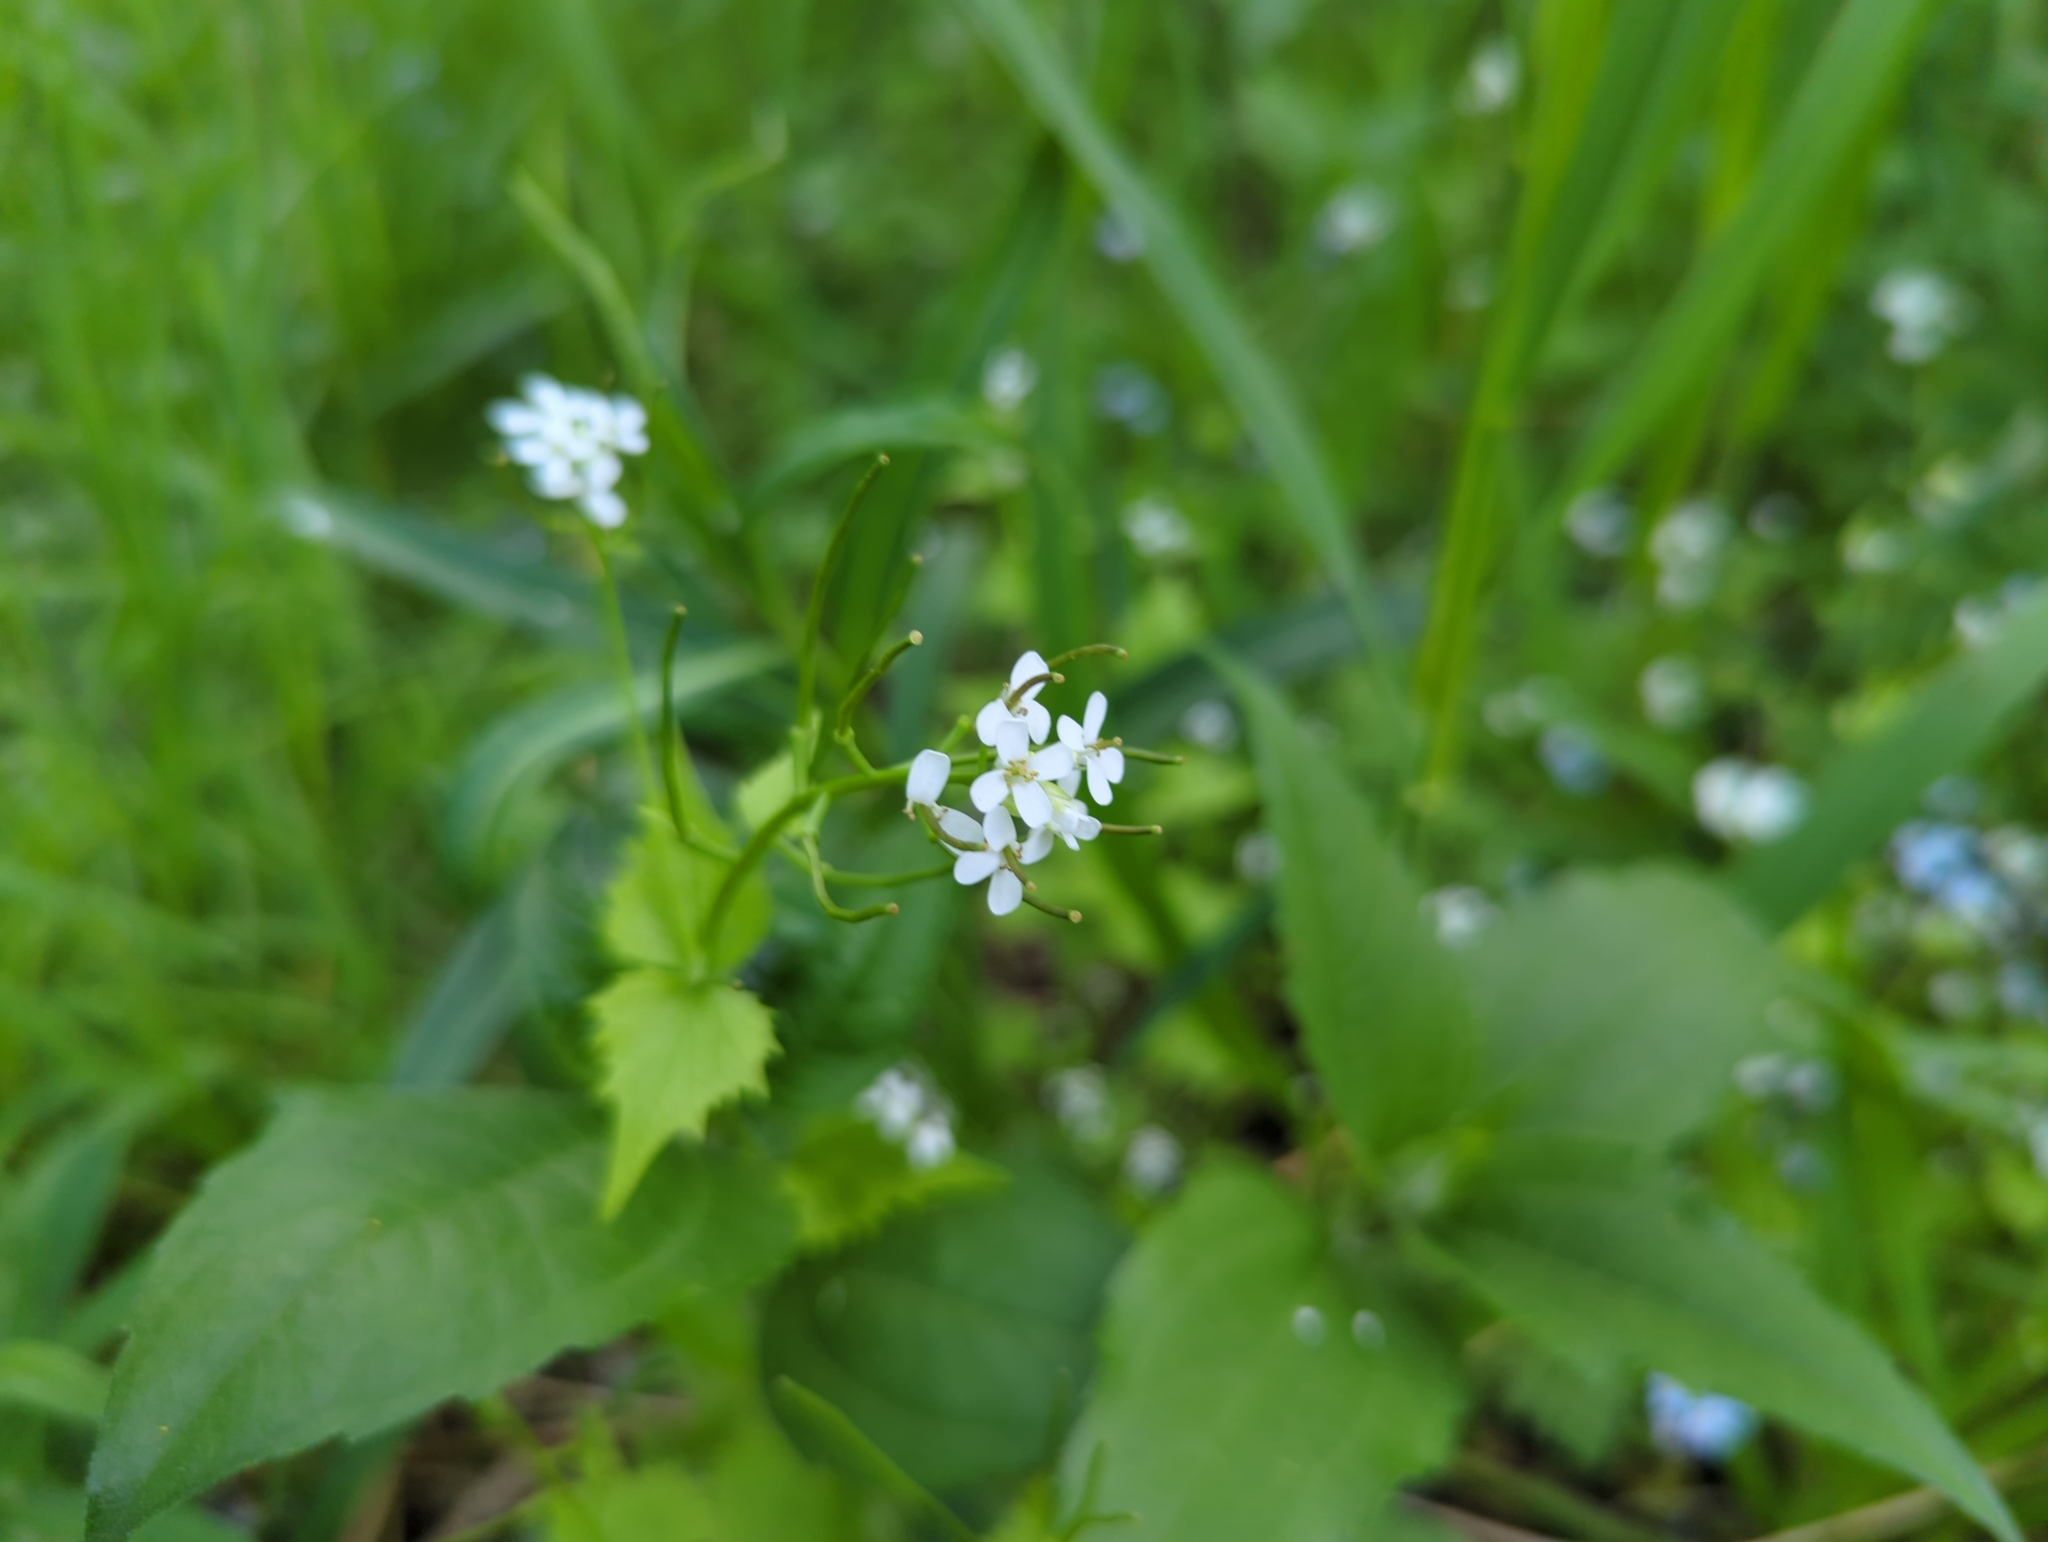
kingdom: Plantae
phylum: Tracheophyta
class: Magnoliopsida
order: Brassicales
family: Brassicaceae
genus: Alliaria
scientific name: Alliaria petiolata
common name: Garlic mustard
